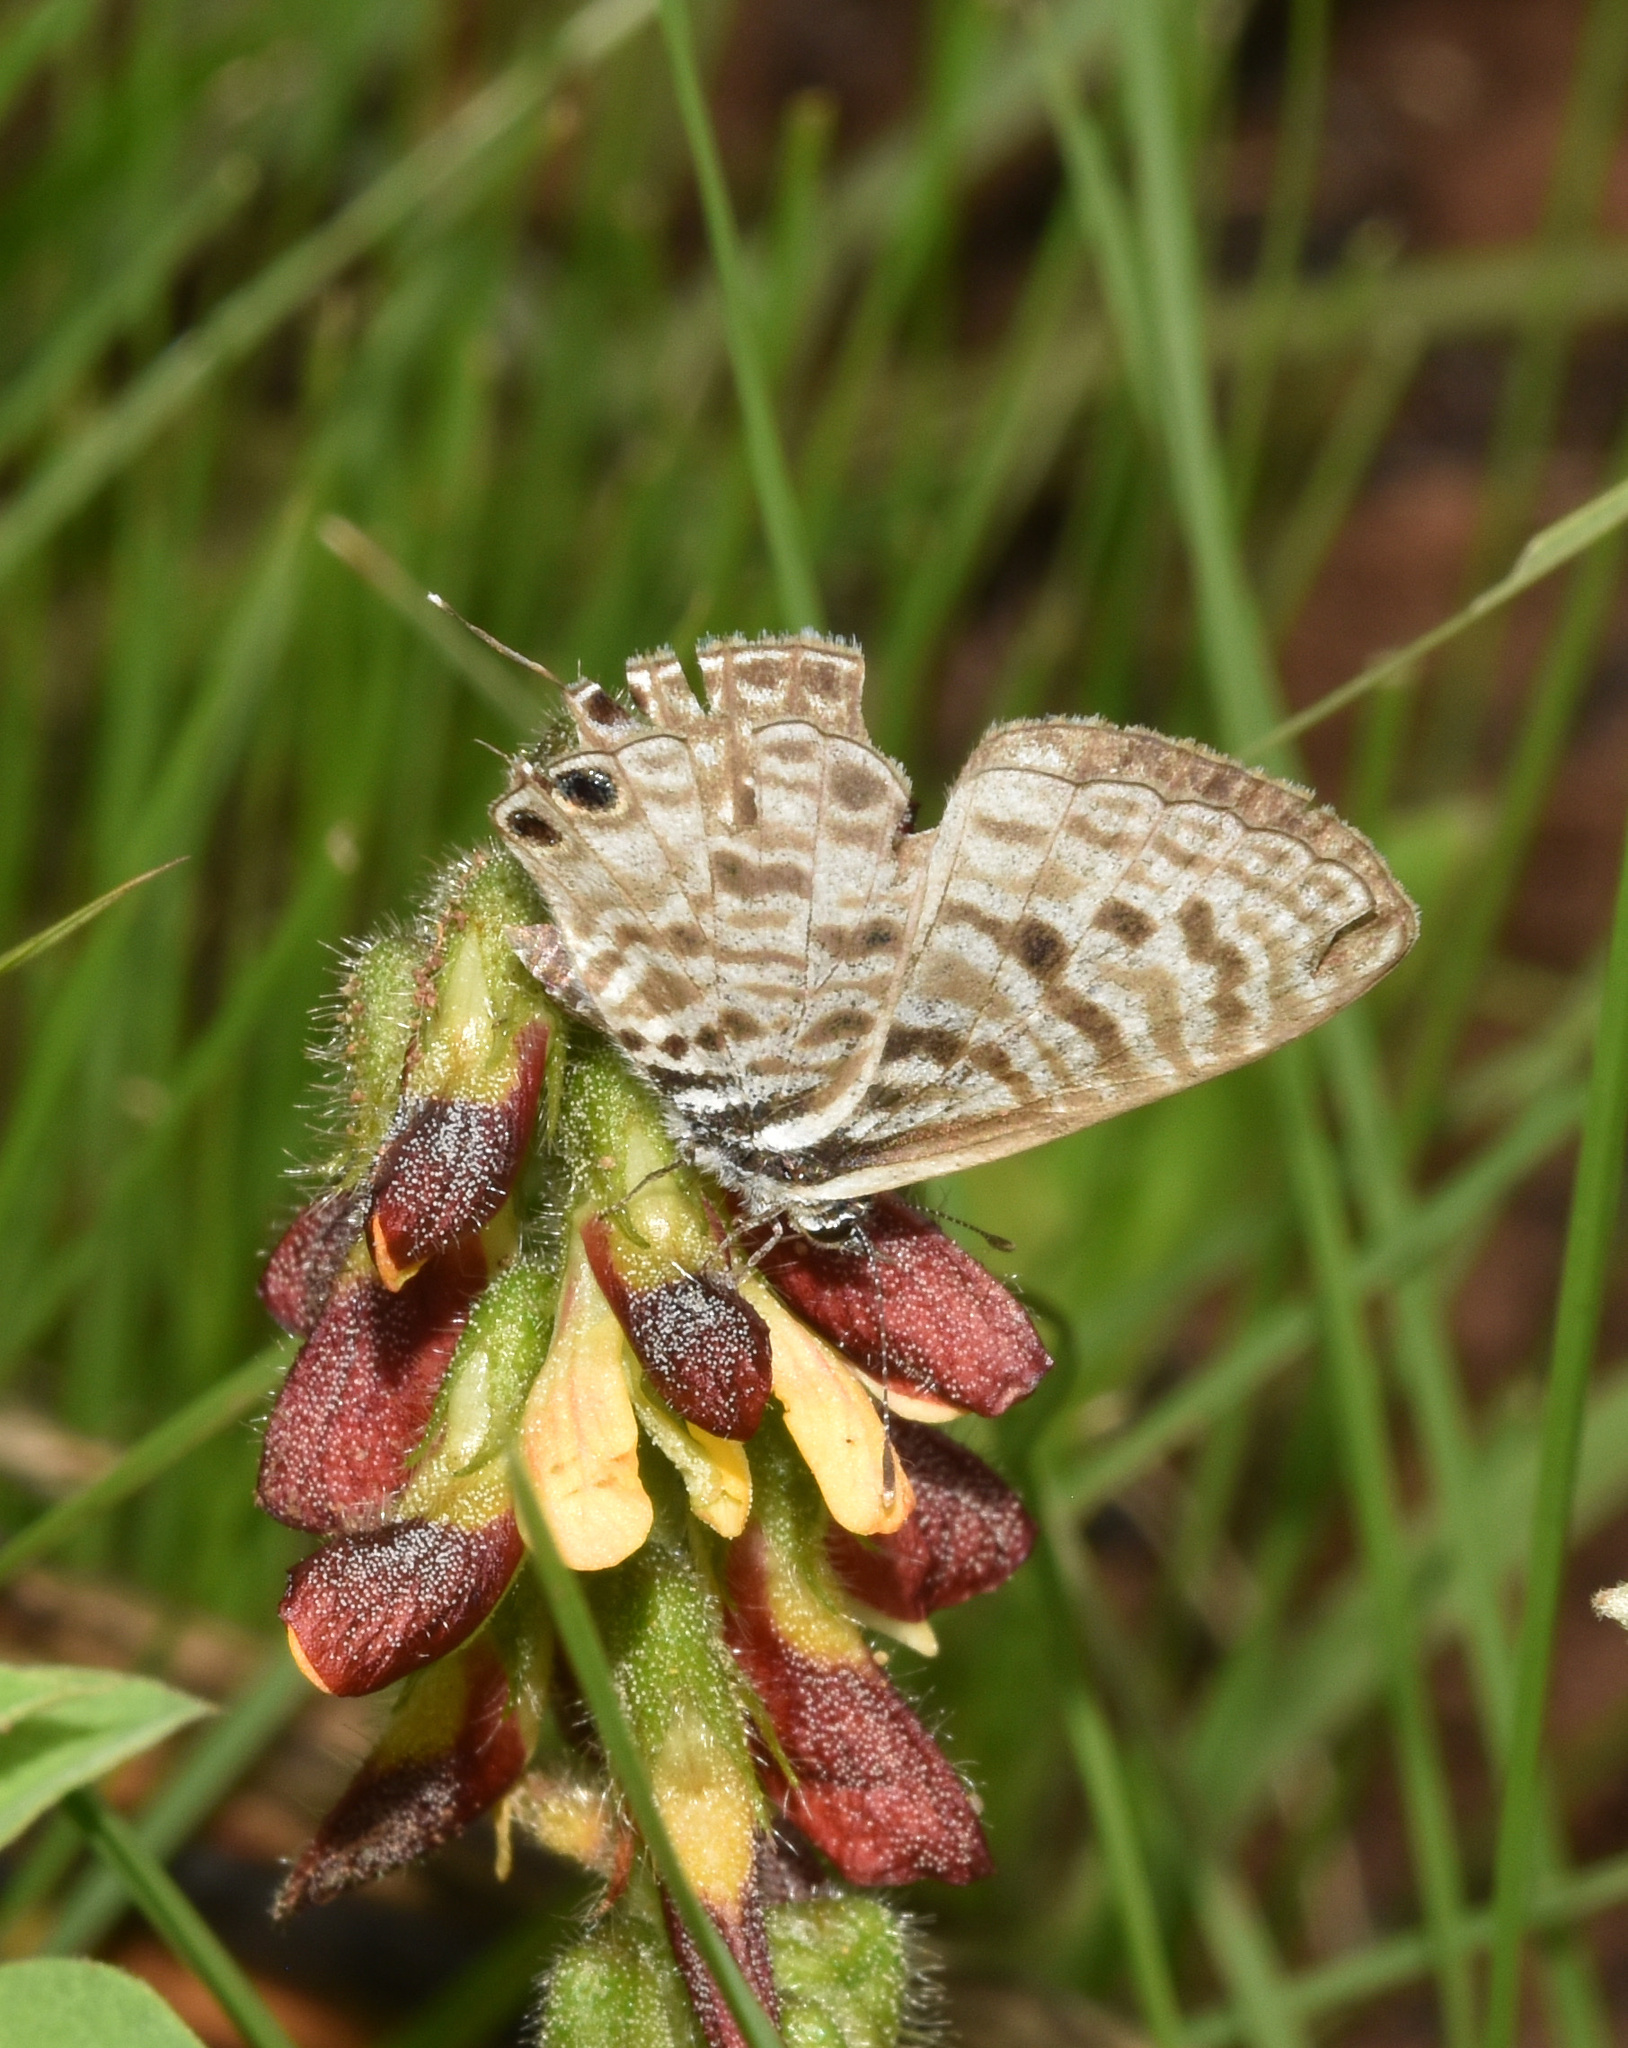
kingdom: Animalia
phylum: Arthropoda
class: Insecta
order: Lepidoptera
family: Lycaenidae
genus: Leptotes
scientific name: Leptotes
